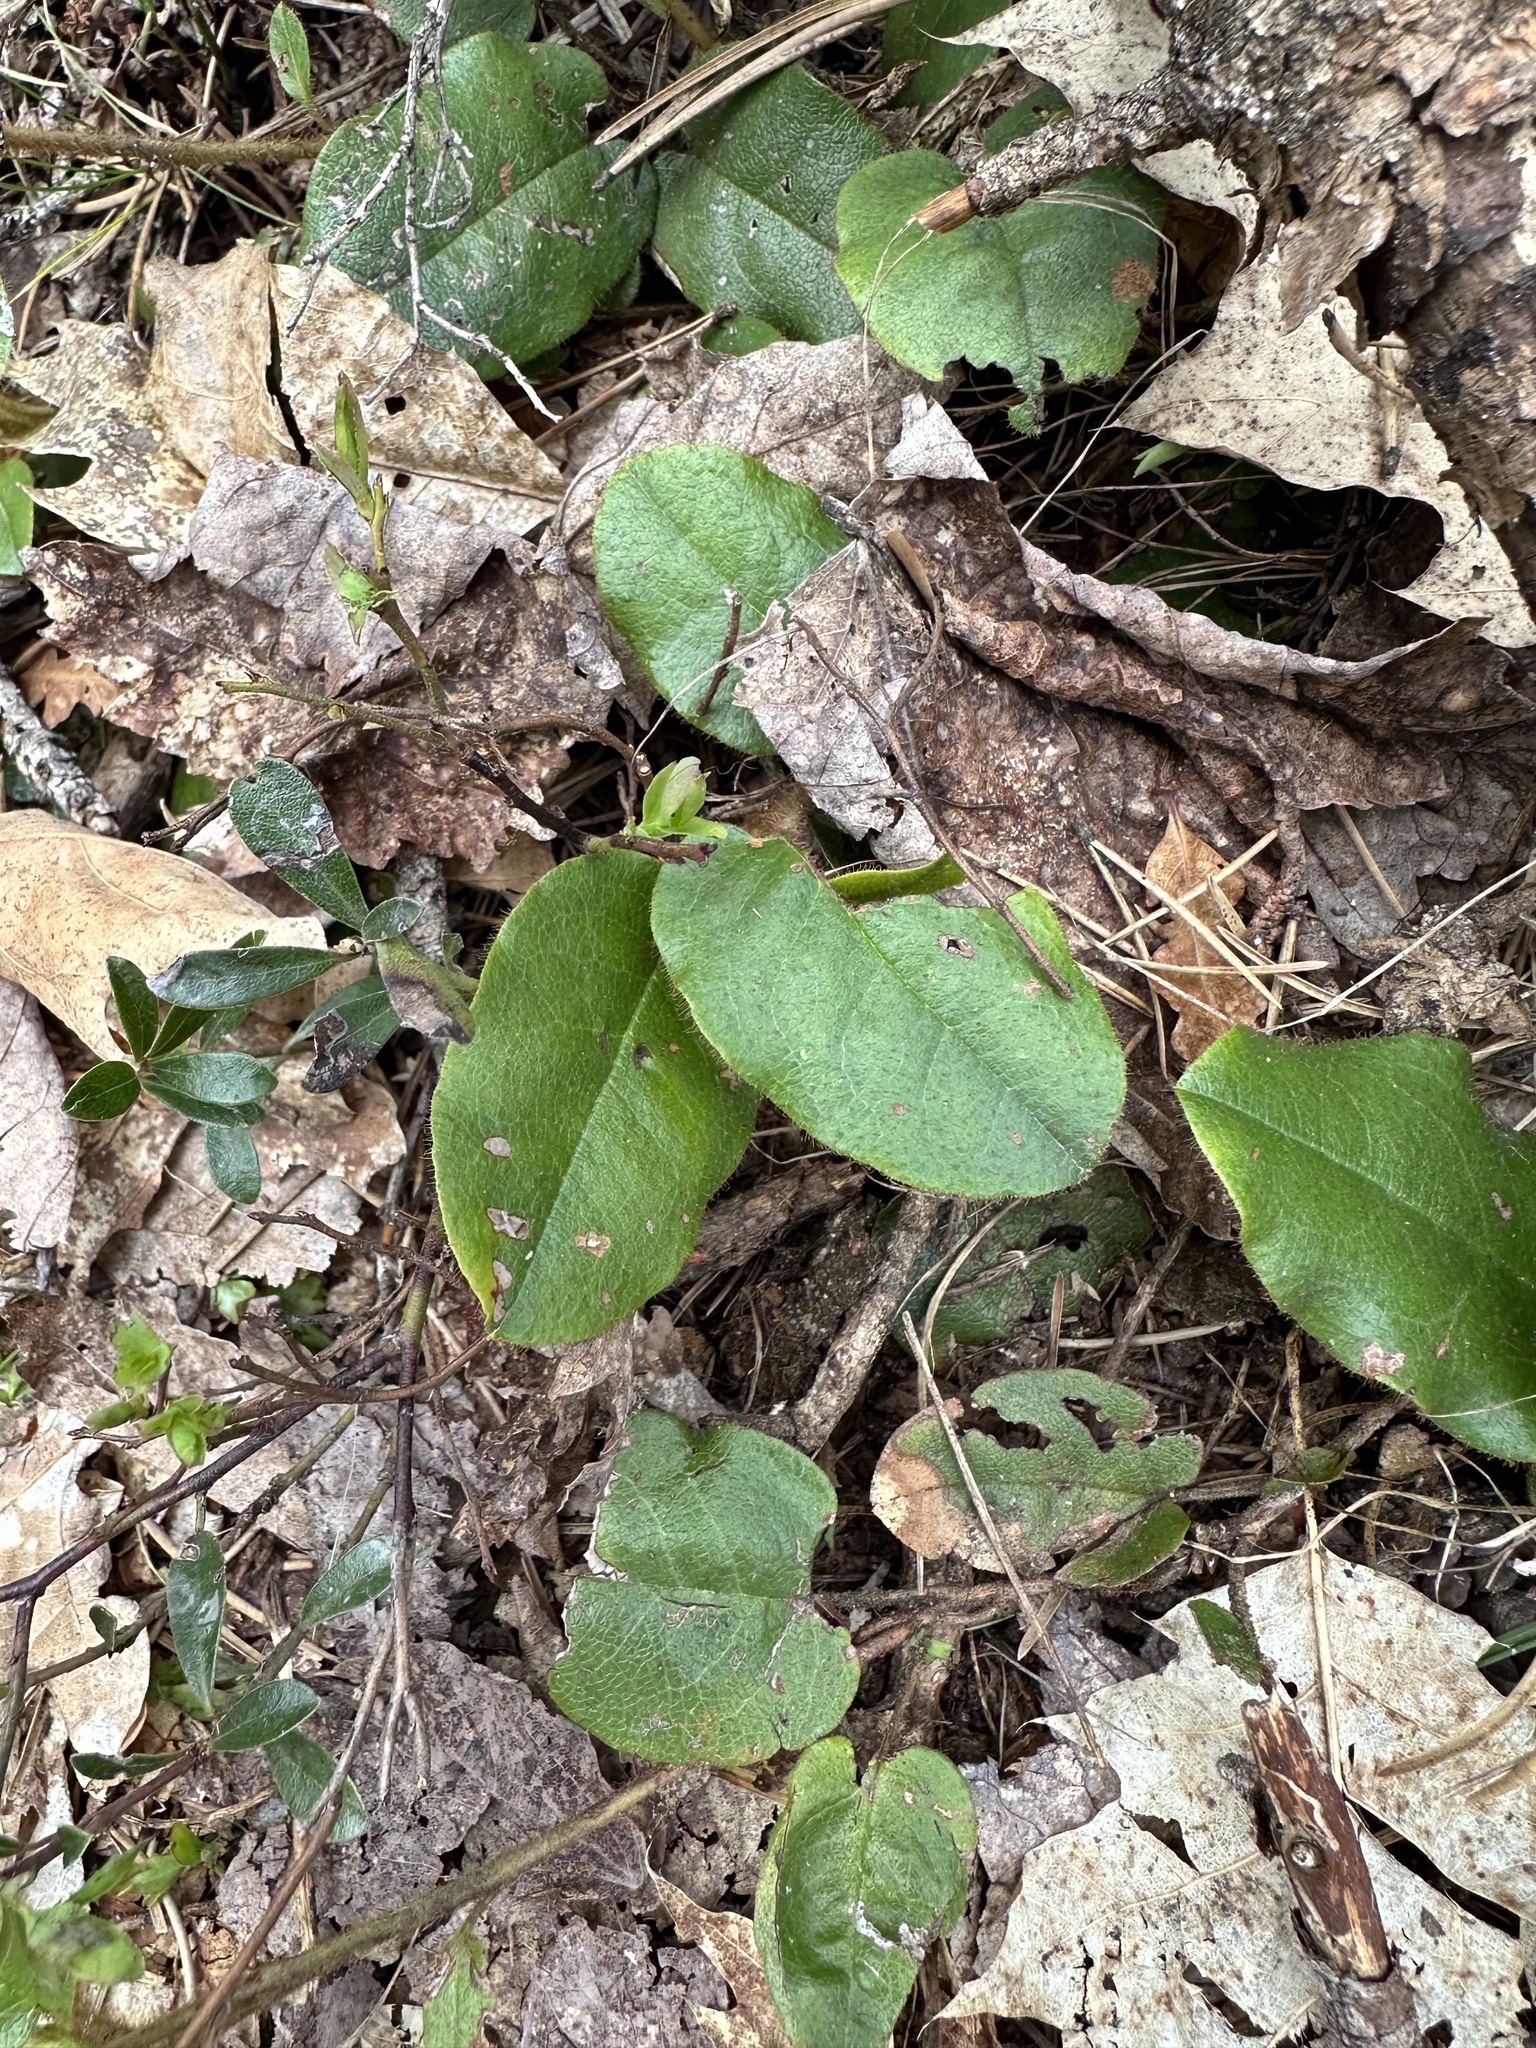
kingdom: Plantae
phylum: Tracheophyta
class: Magnoliopsida
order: Ericales
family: Ericaceae
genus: Epigaea
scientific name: Epigaea repens
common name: Gravelroot
